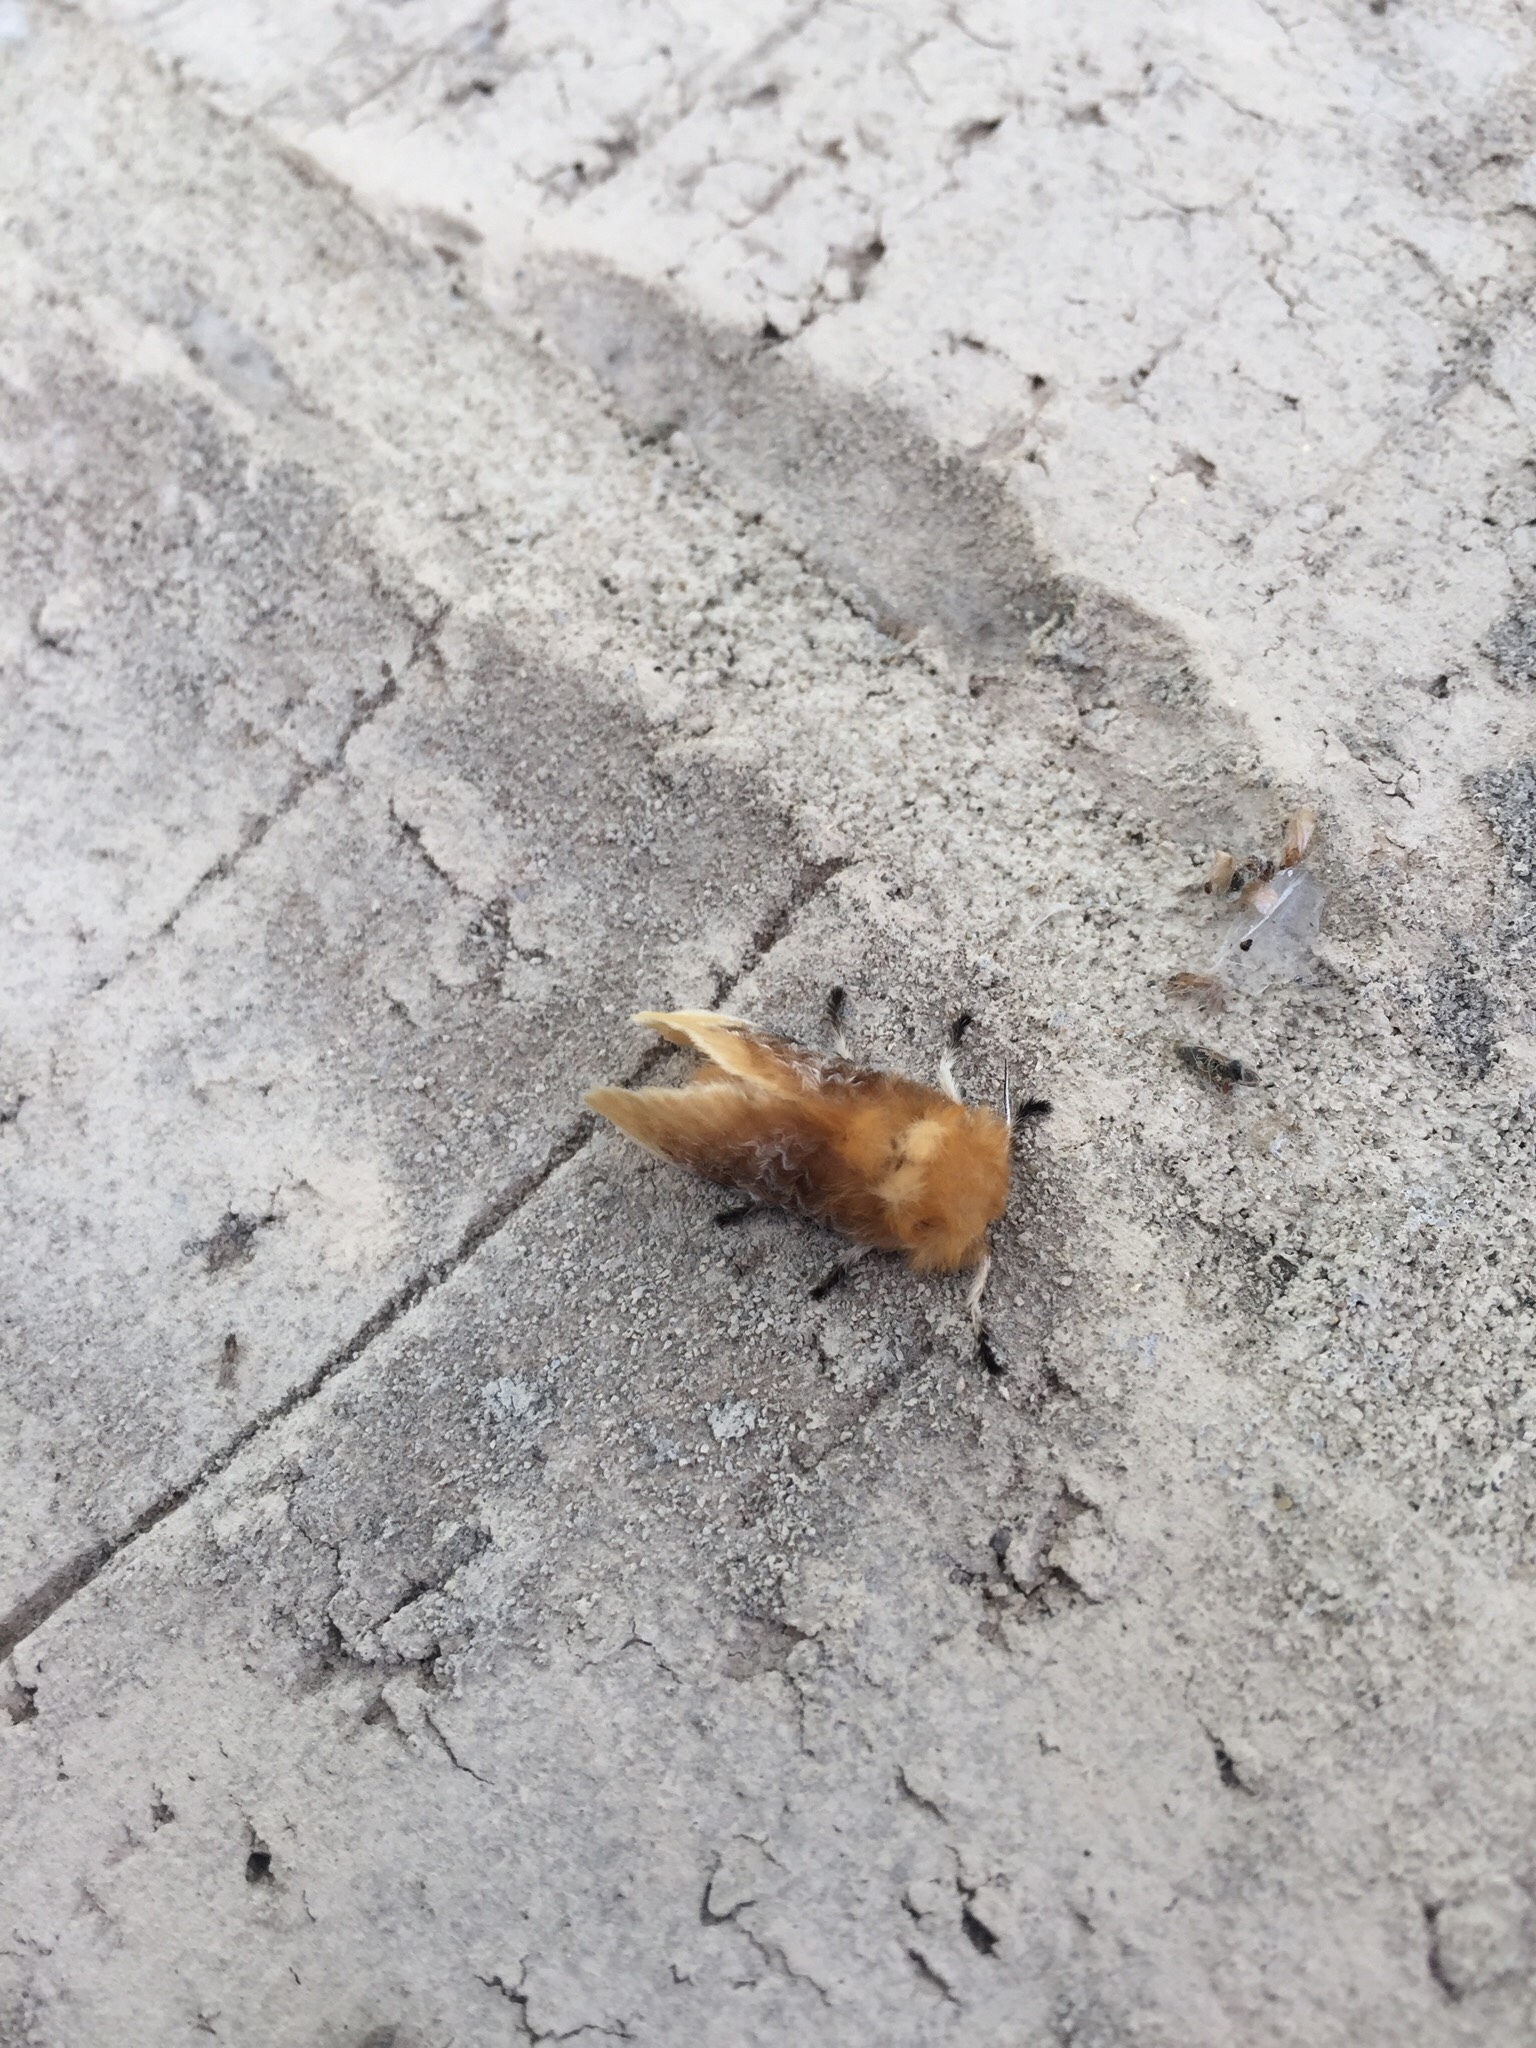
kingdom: Animalia
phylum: Arthropoda
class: Insecta
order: Lepidoptera
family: Megalopygidae
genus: Megalopyge
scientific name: Megalopyge opercularis
